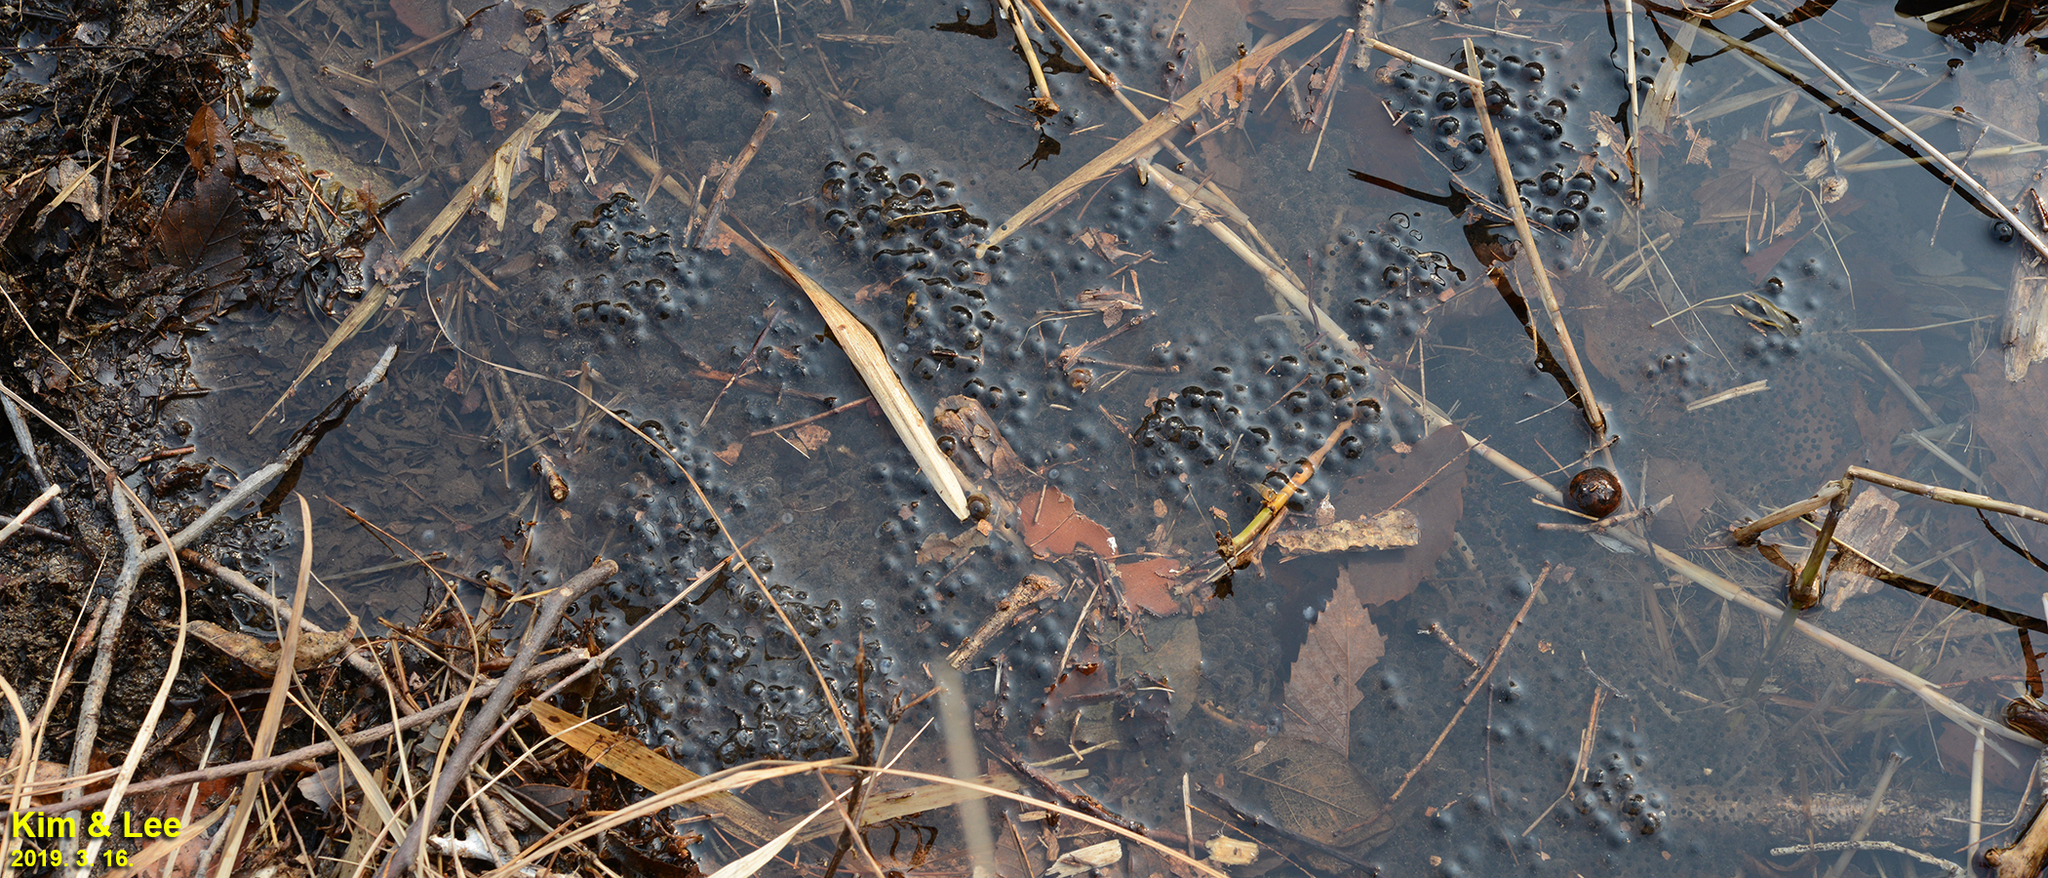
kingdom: Animalia
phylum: Chordata
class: Amphibia
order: Anura
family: Ranidae
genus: Rana
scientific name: Rana huanrenensis
